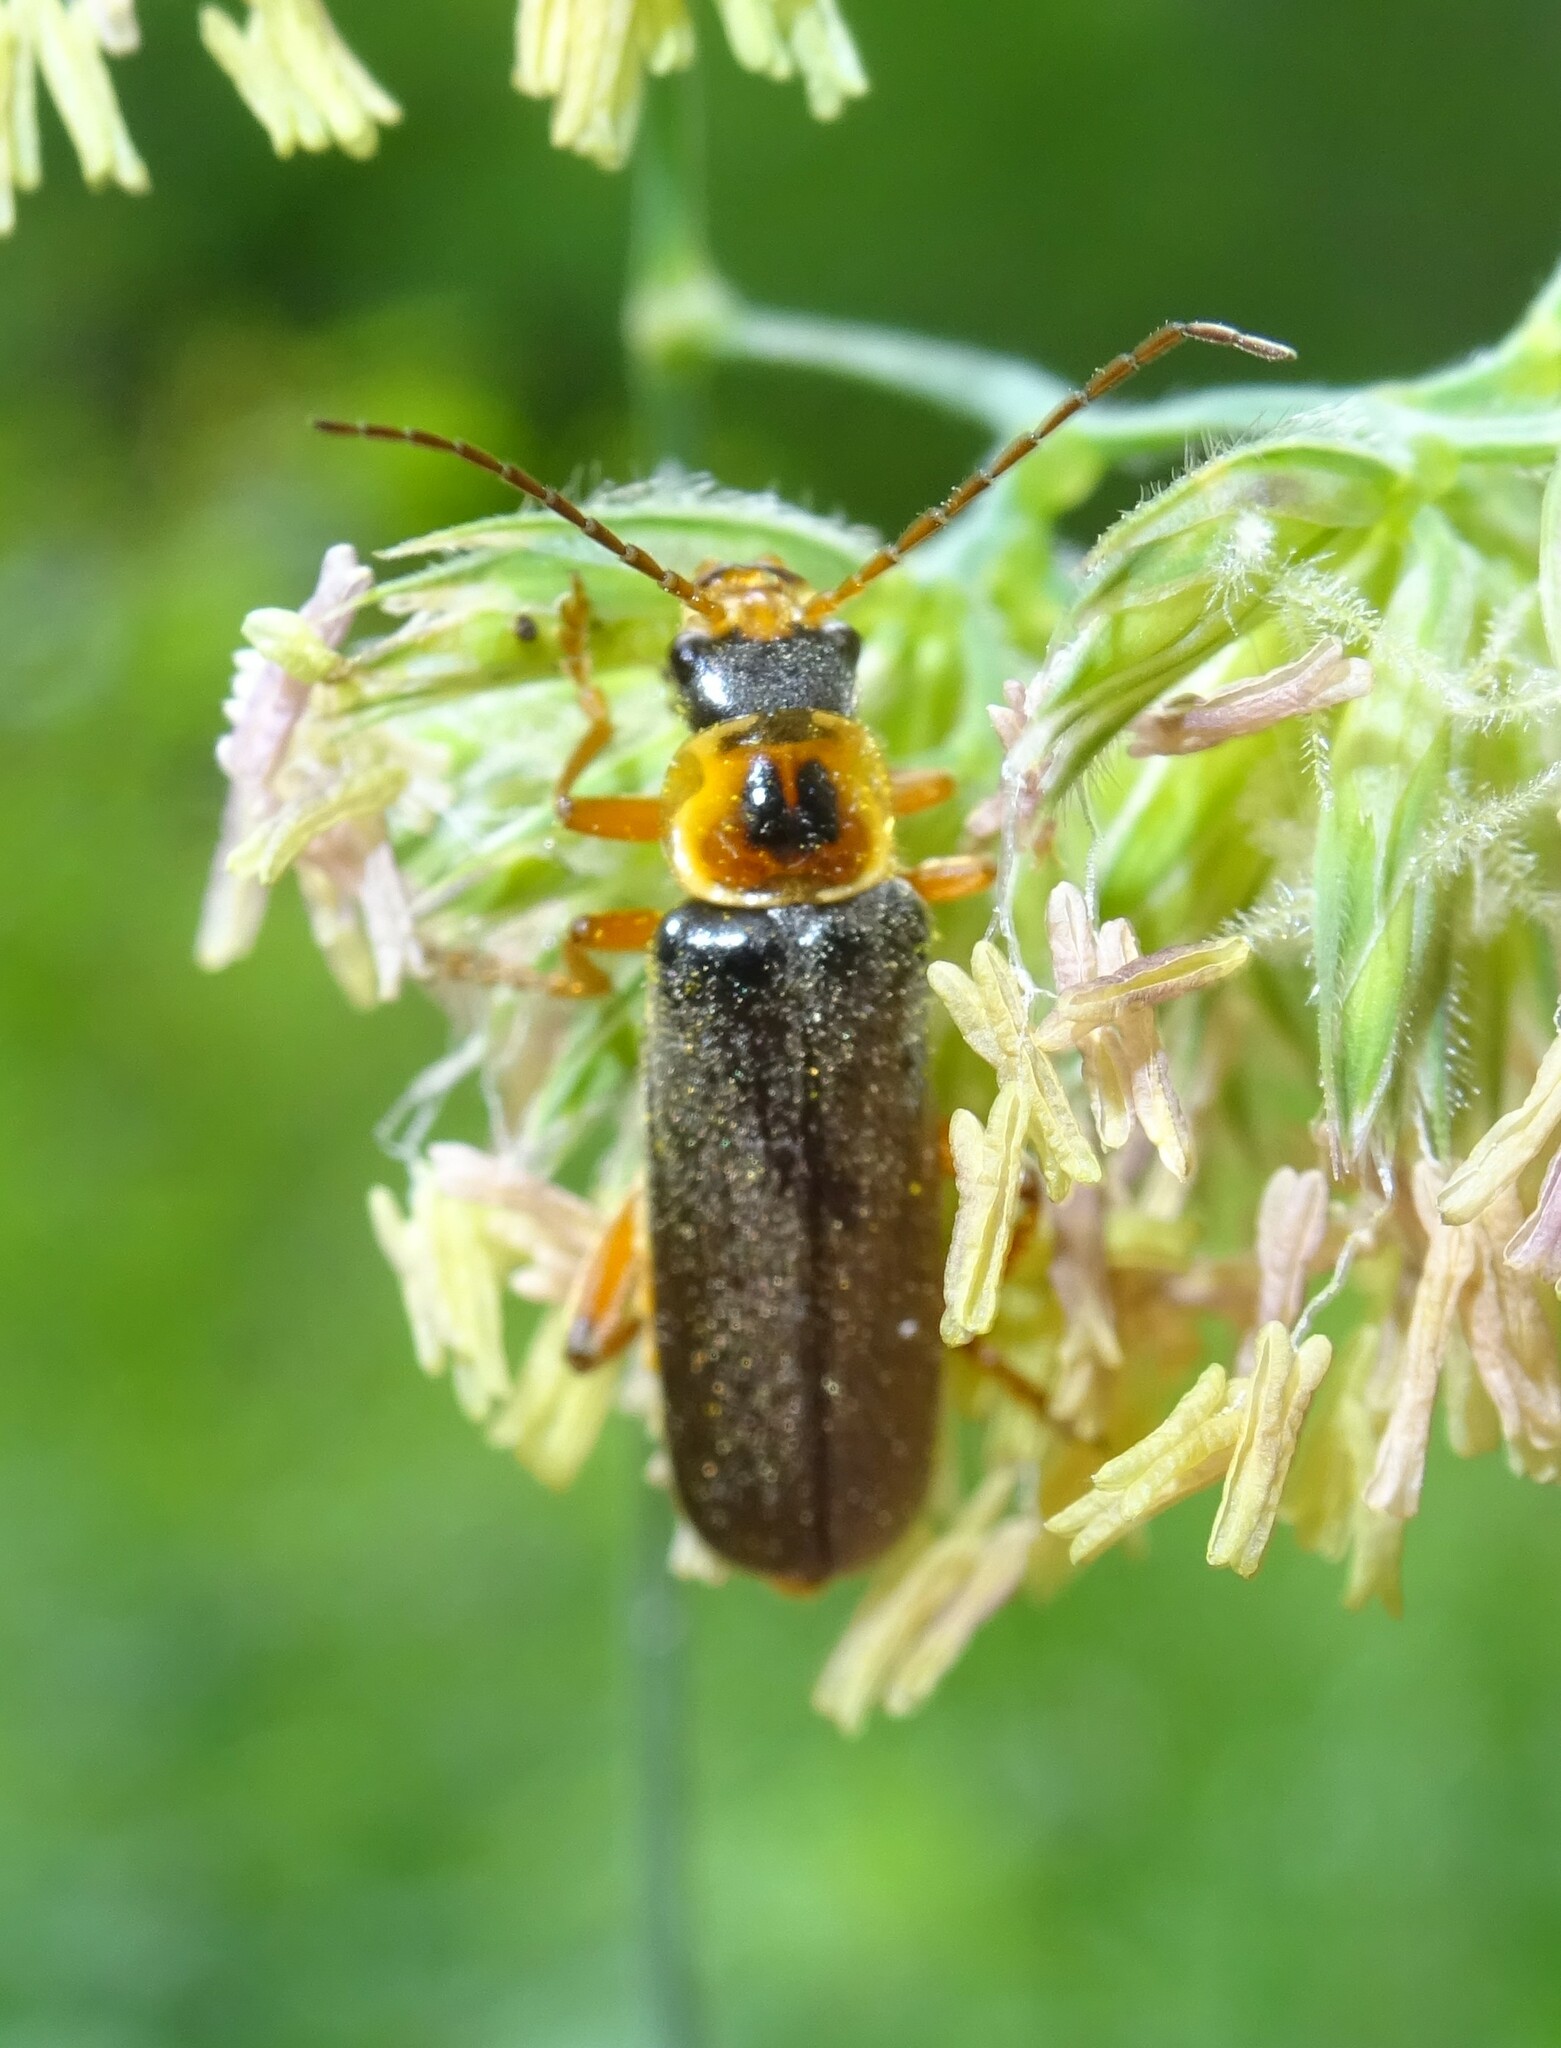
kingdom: Animalia
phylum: Arthropoda
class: Insecta
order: Coleoptera
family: Cantharidae
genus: Cantharis
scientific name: Cantharis nigricans
